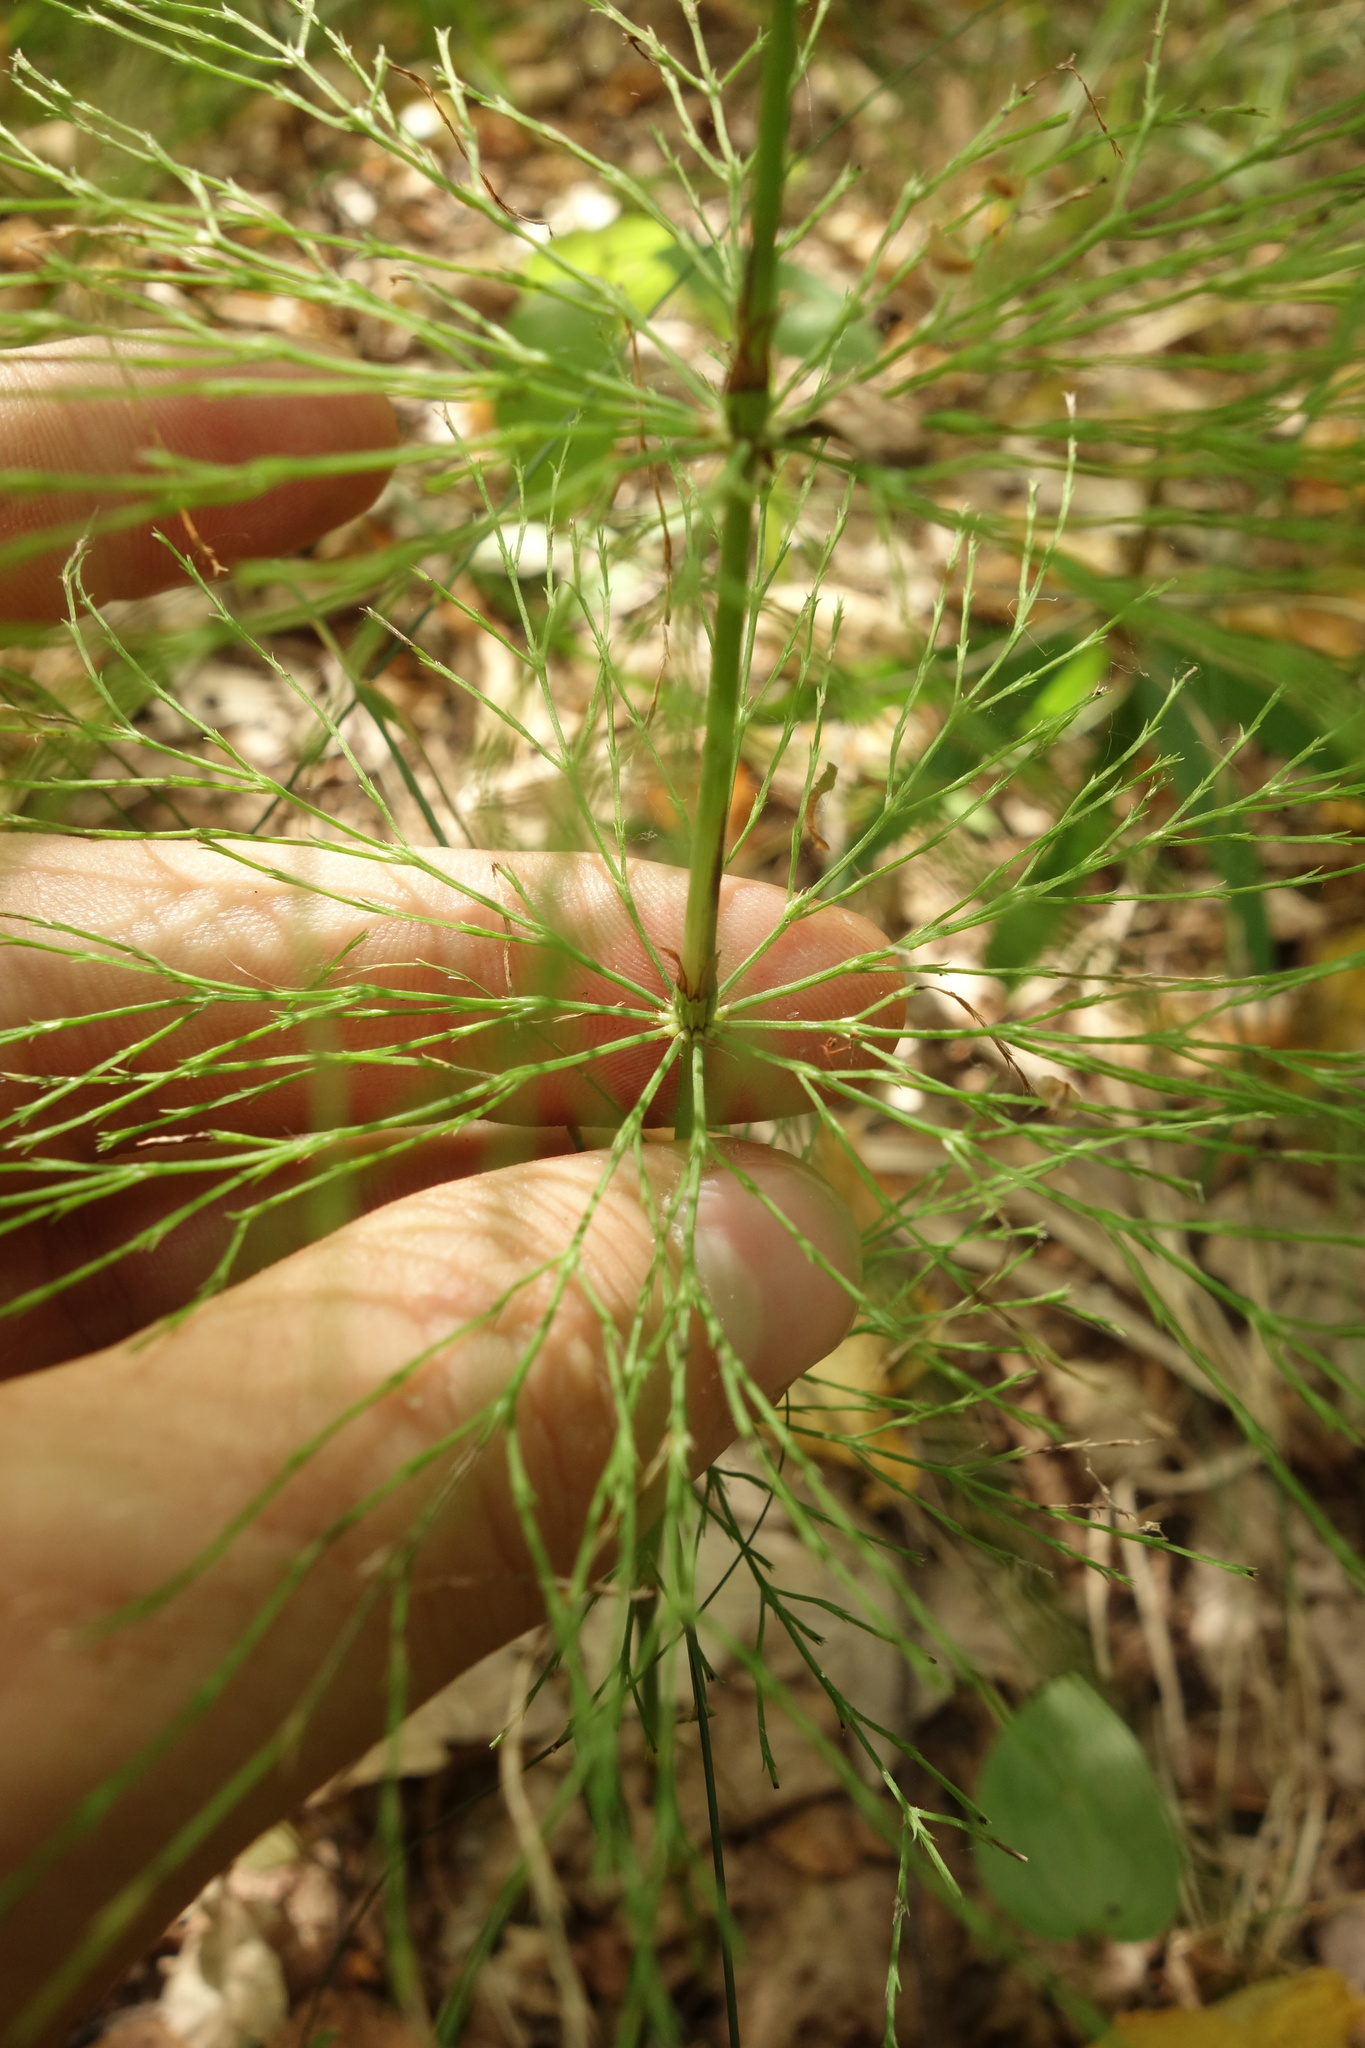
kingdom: Plantae
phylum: Tracheophyta
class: Polypodiopsida
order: Equisetales
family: Equisetaceae
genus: Equisetum
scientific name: Equisetum sylvaticum
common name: Wood horsetail
